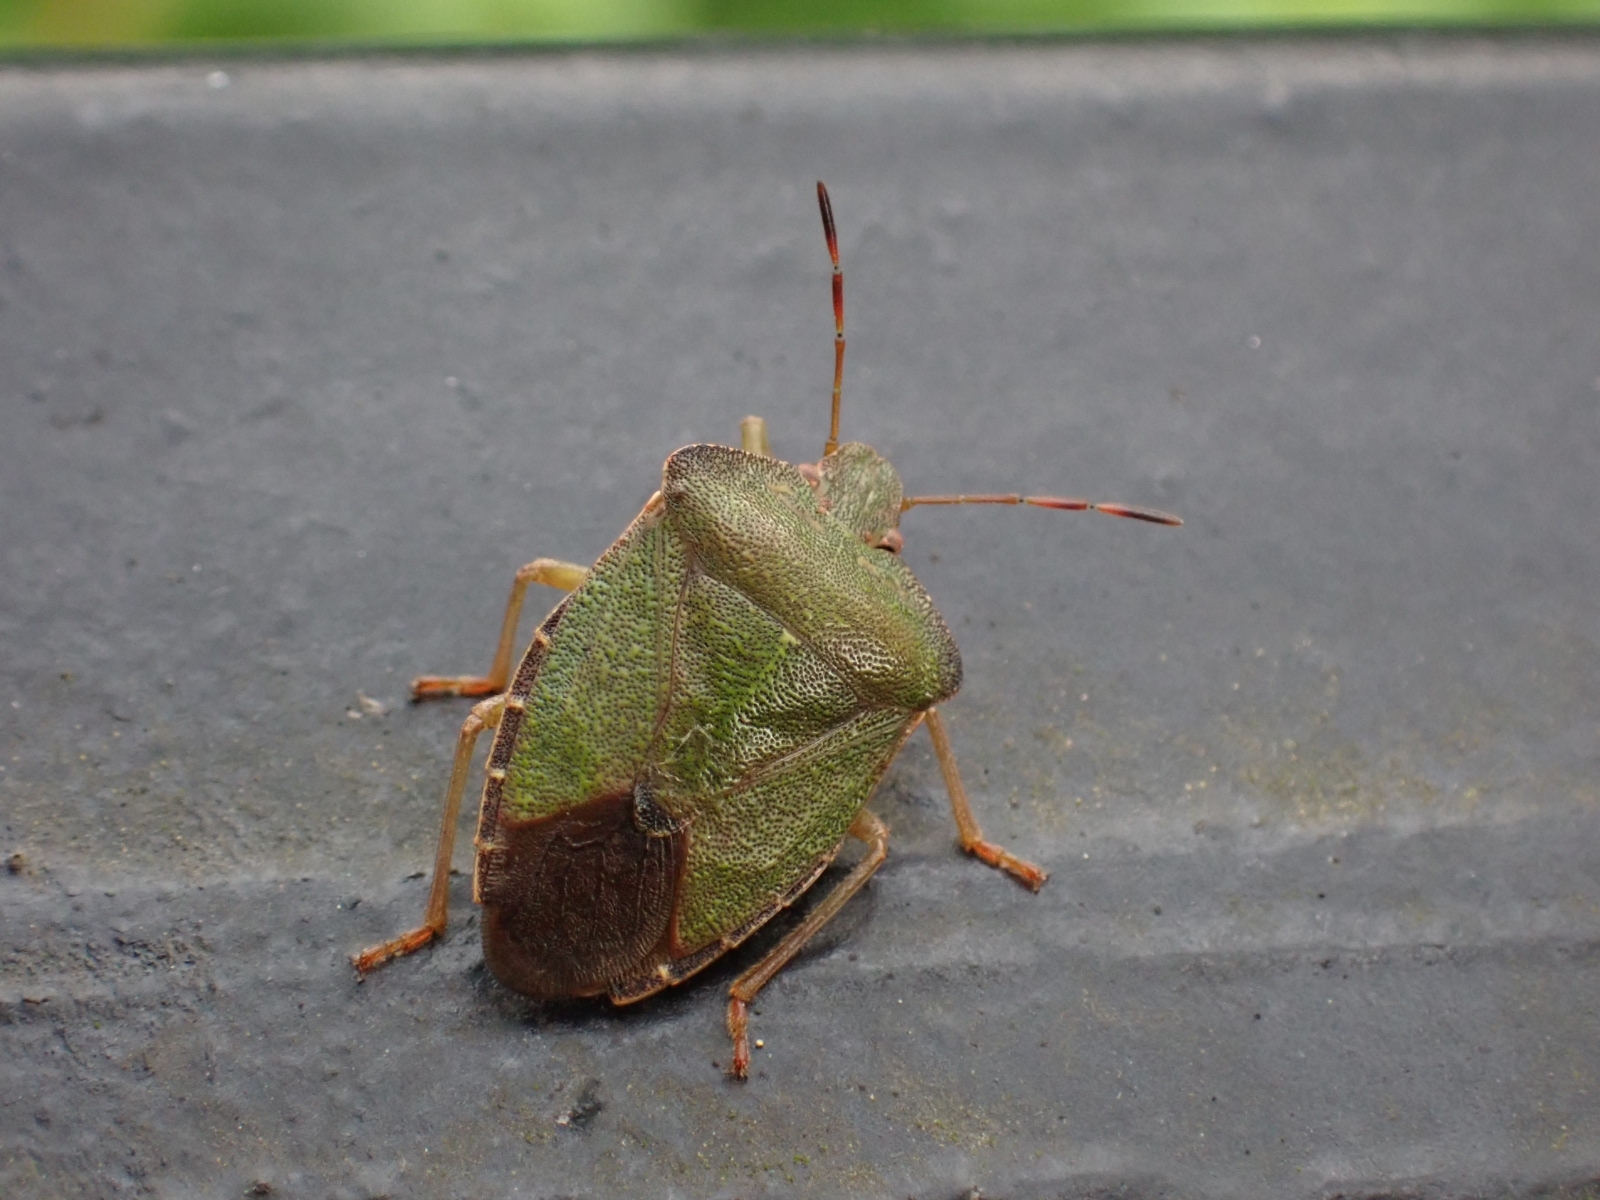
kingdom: Animalia
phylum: Arthropoda
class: Insecta
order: Hemiptera
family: Pentatomidae
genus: Palomena
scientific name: Palomena prasina
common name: Green shieldbug
